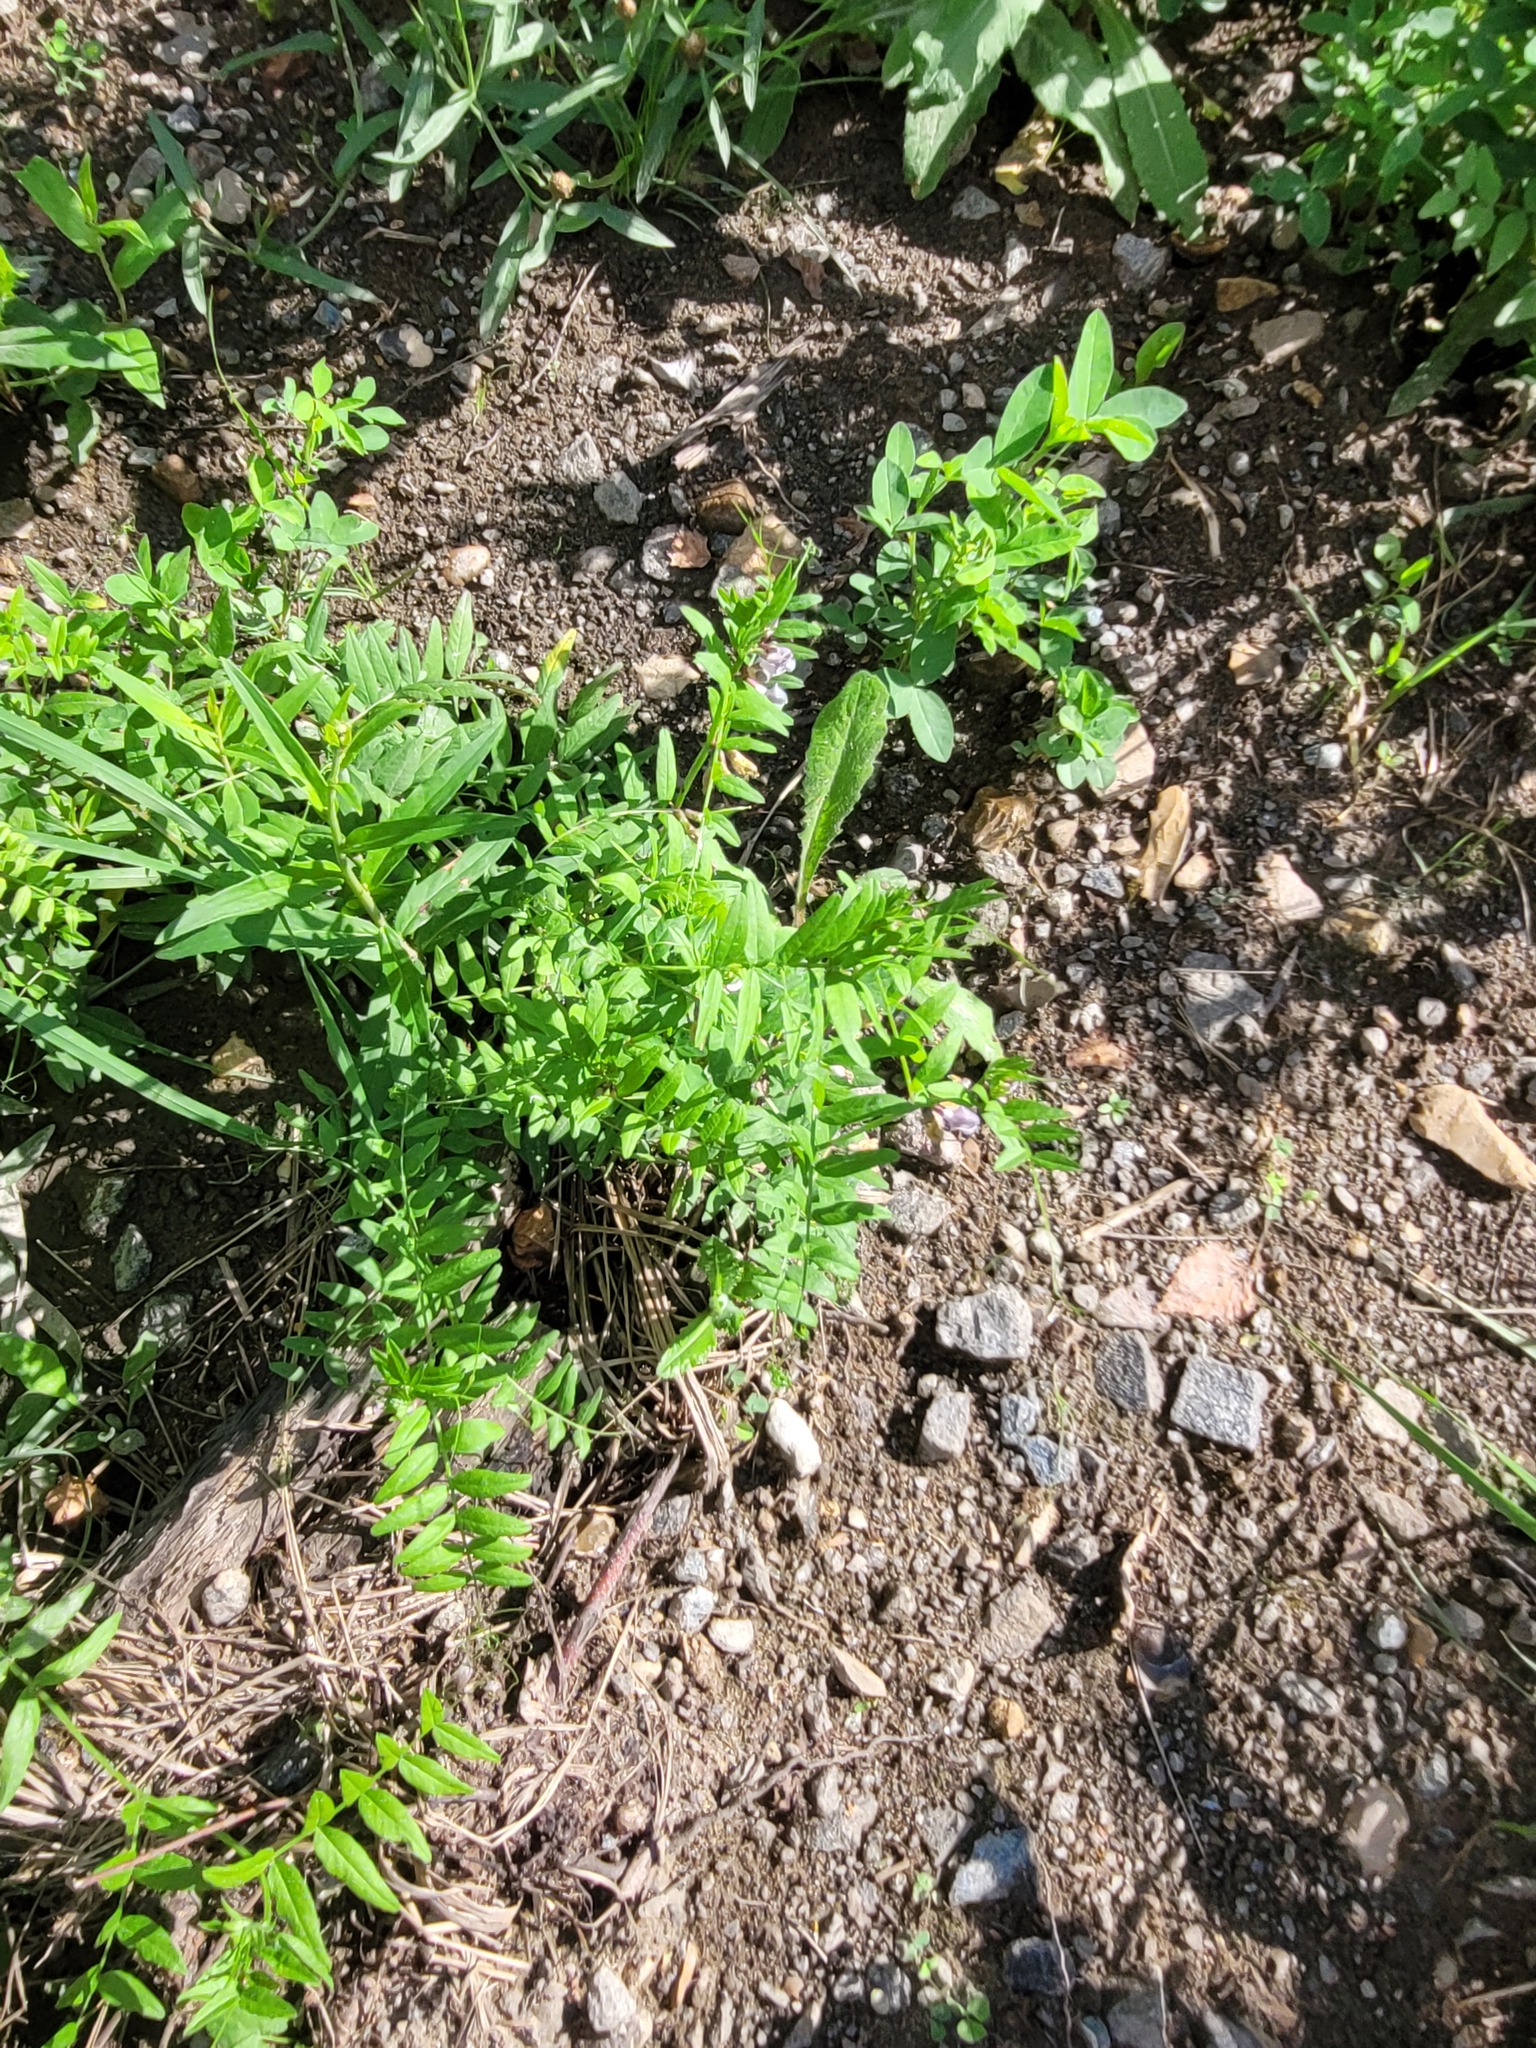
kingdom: Plantae
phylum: Tracheophyta
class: Magnoliopsida
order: Fabales
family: Fabaceae
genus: Vicia
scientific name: Vicia sepium
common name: Bush vetch
